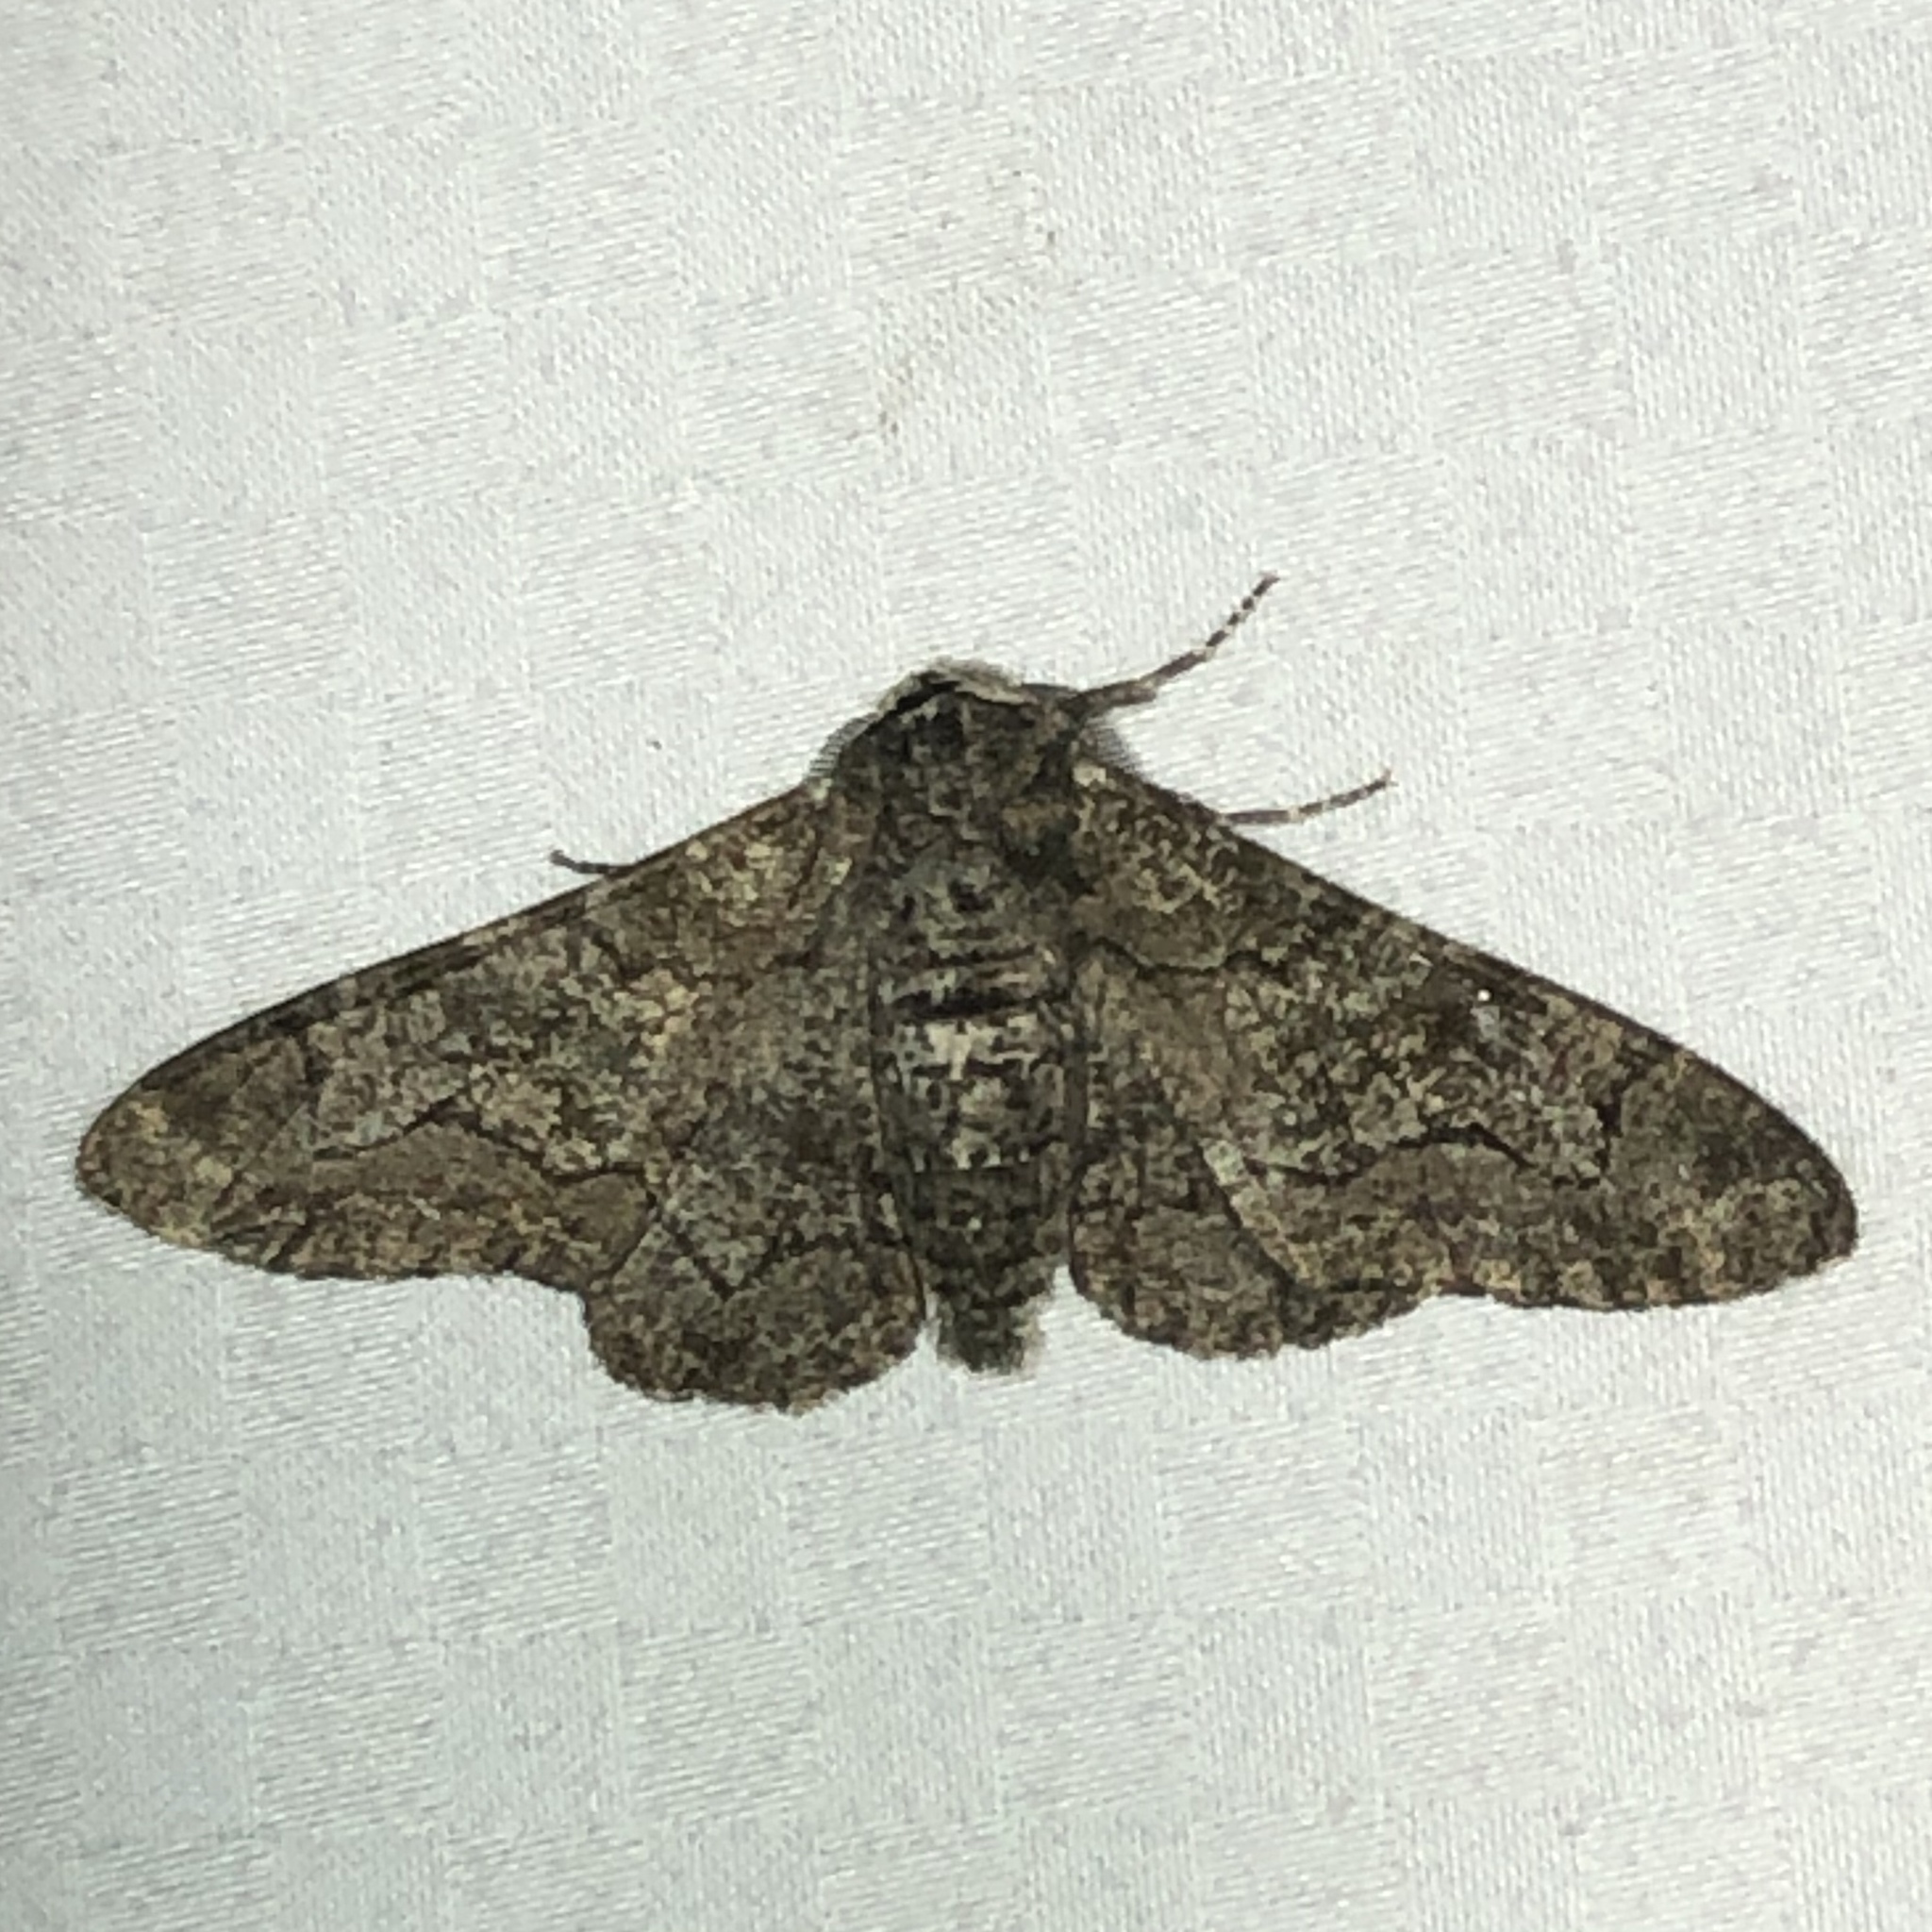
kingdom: Animalia
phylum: Arthropoda
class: Insecta
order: Lepidoptera
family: Geometridae
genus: Biston
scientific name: Biston betularia
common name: Peppered moth
